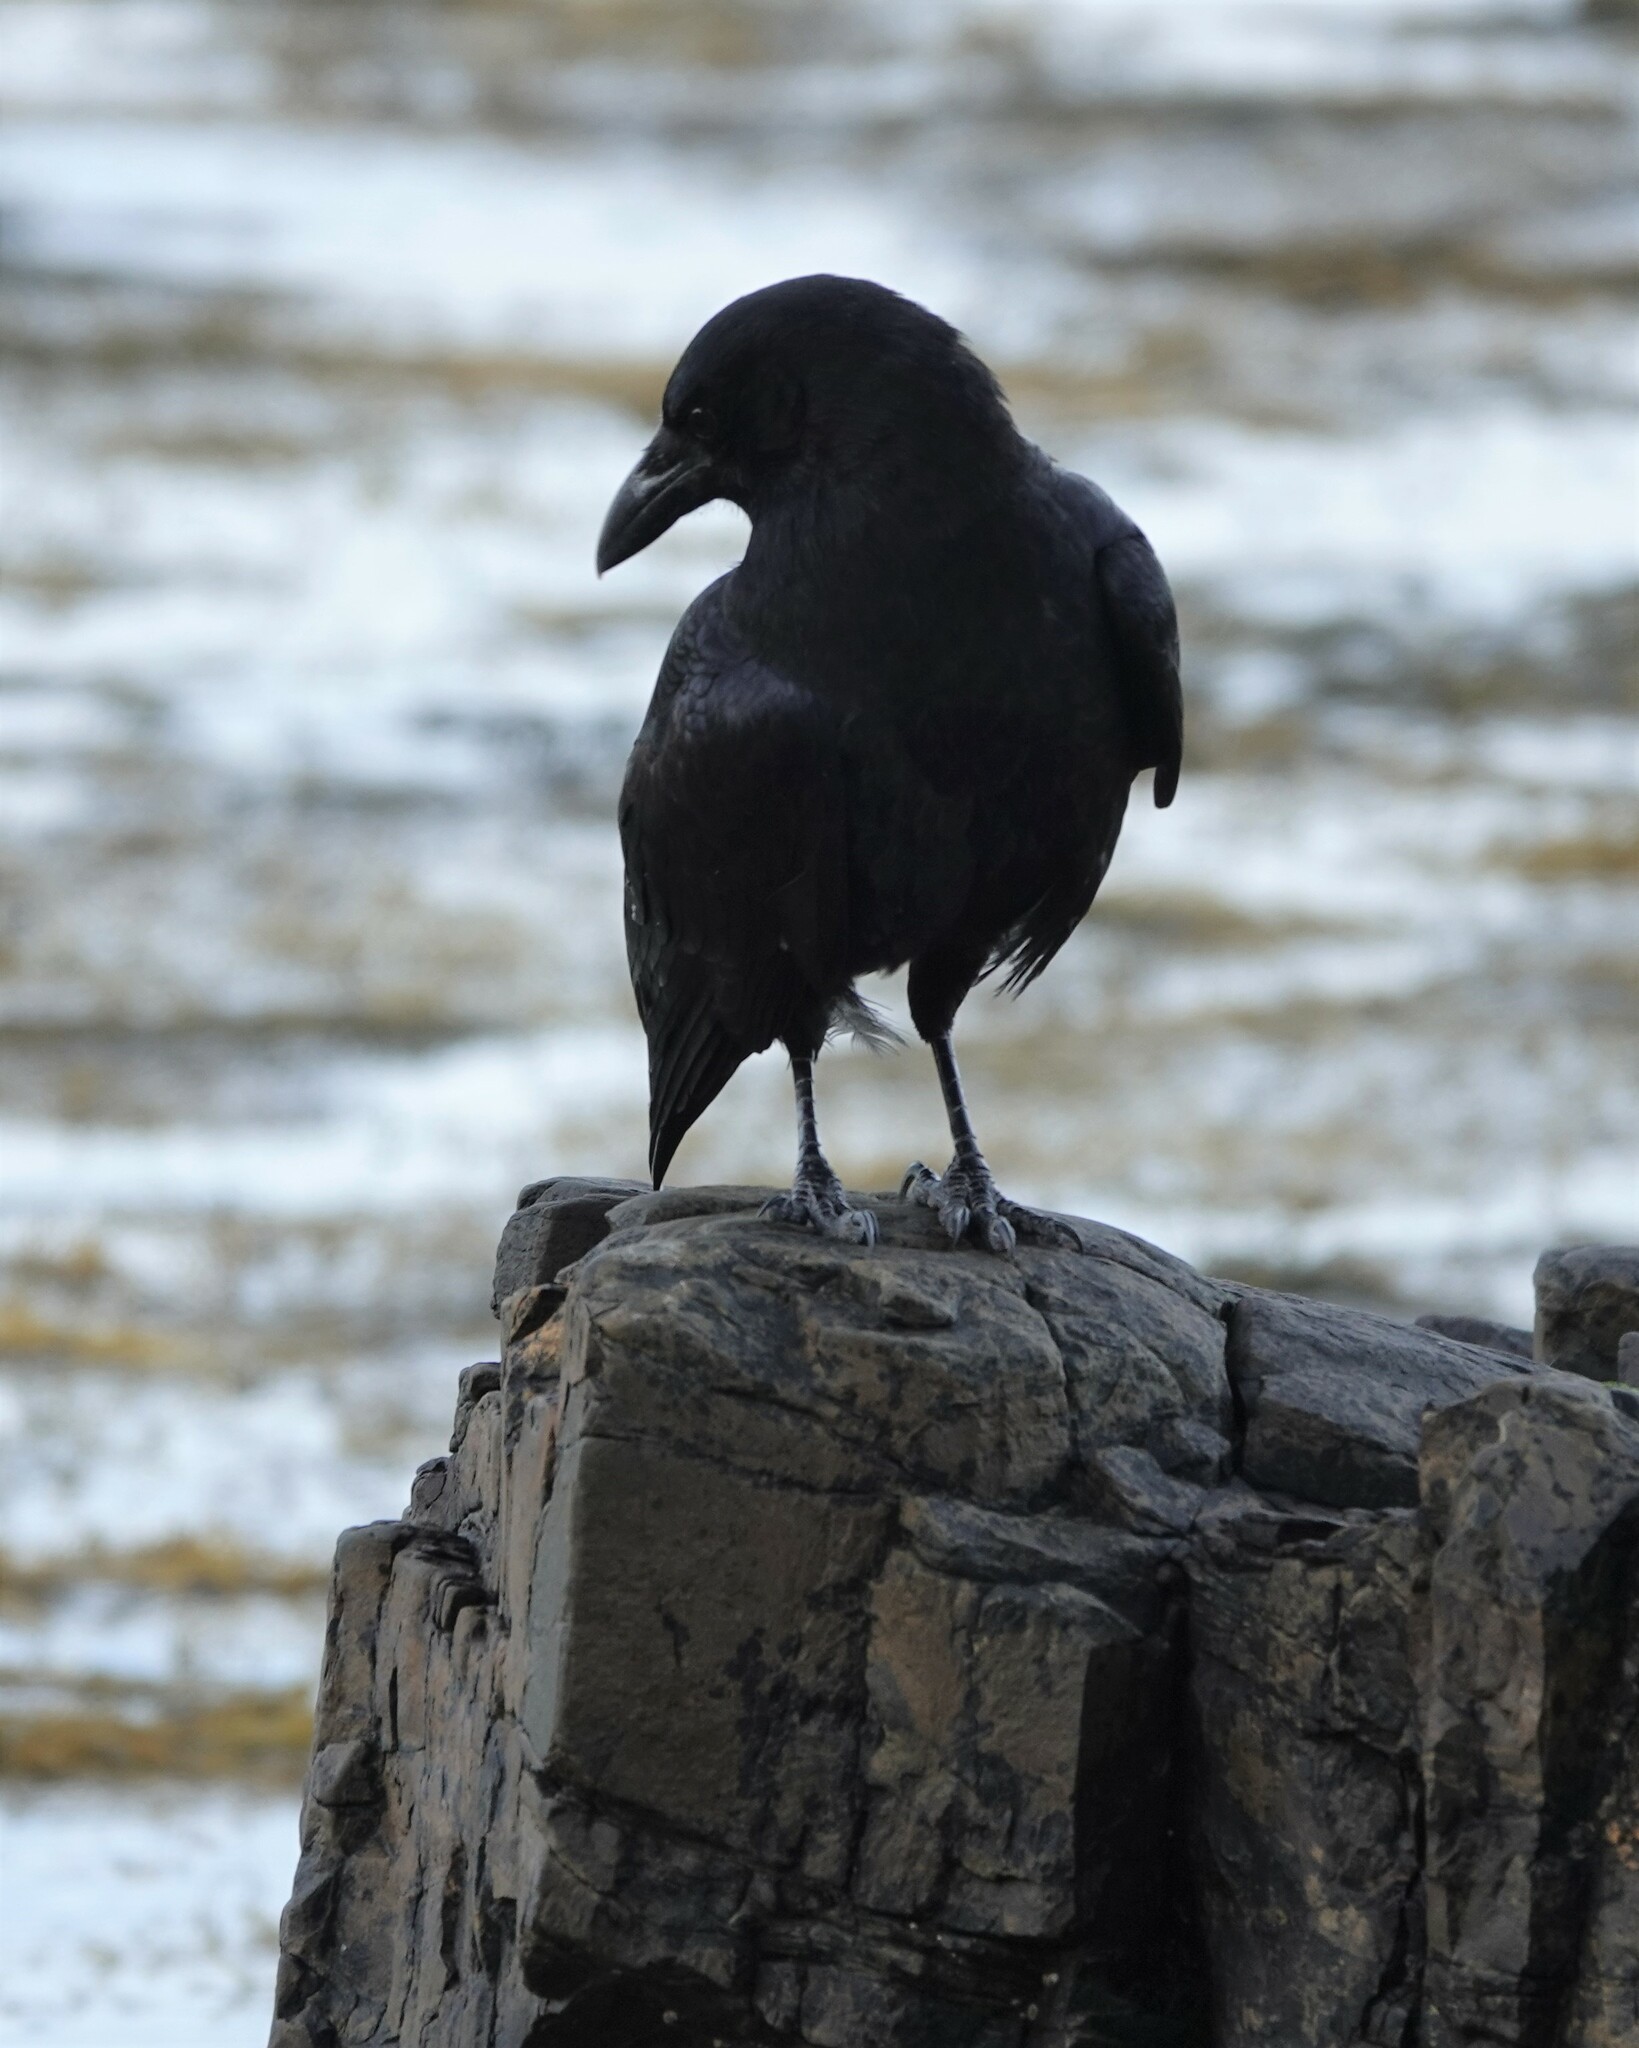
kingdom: Animalia
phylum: Chordata
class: Aves
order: Passeriformes
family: Corvidae
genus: Corvus
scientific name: Corvus brachyrhynchos
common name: American crow
